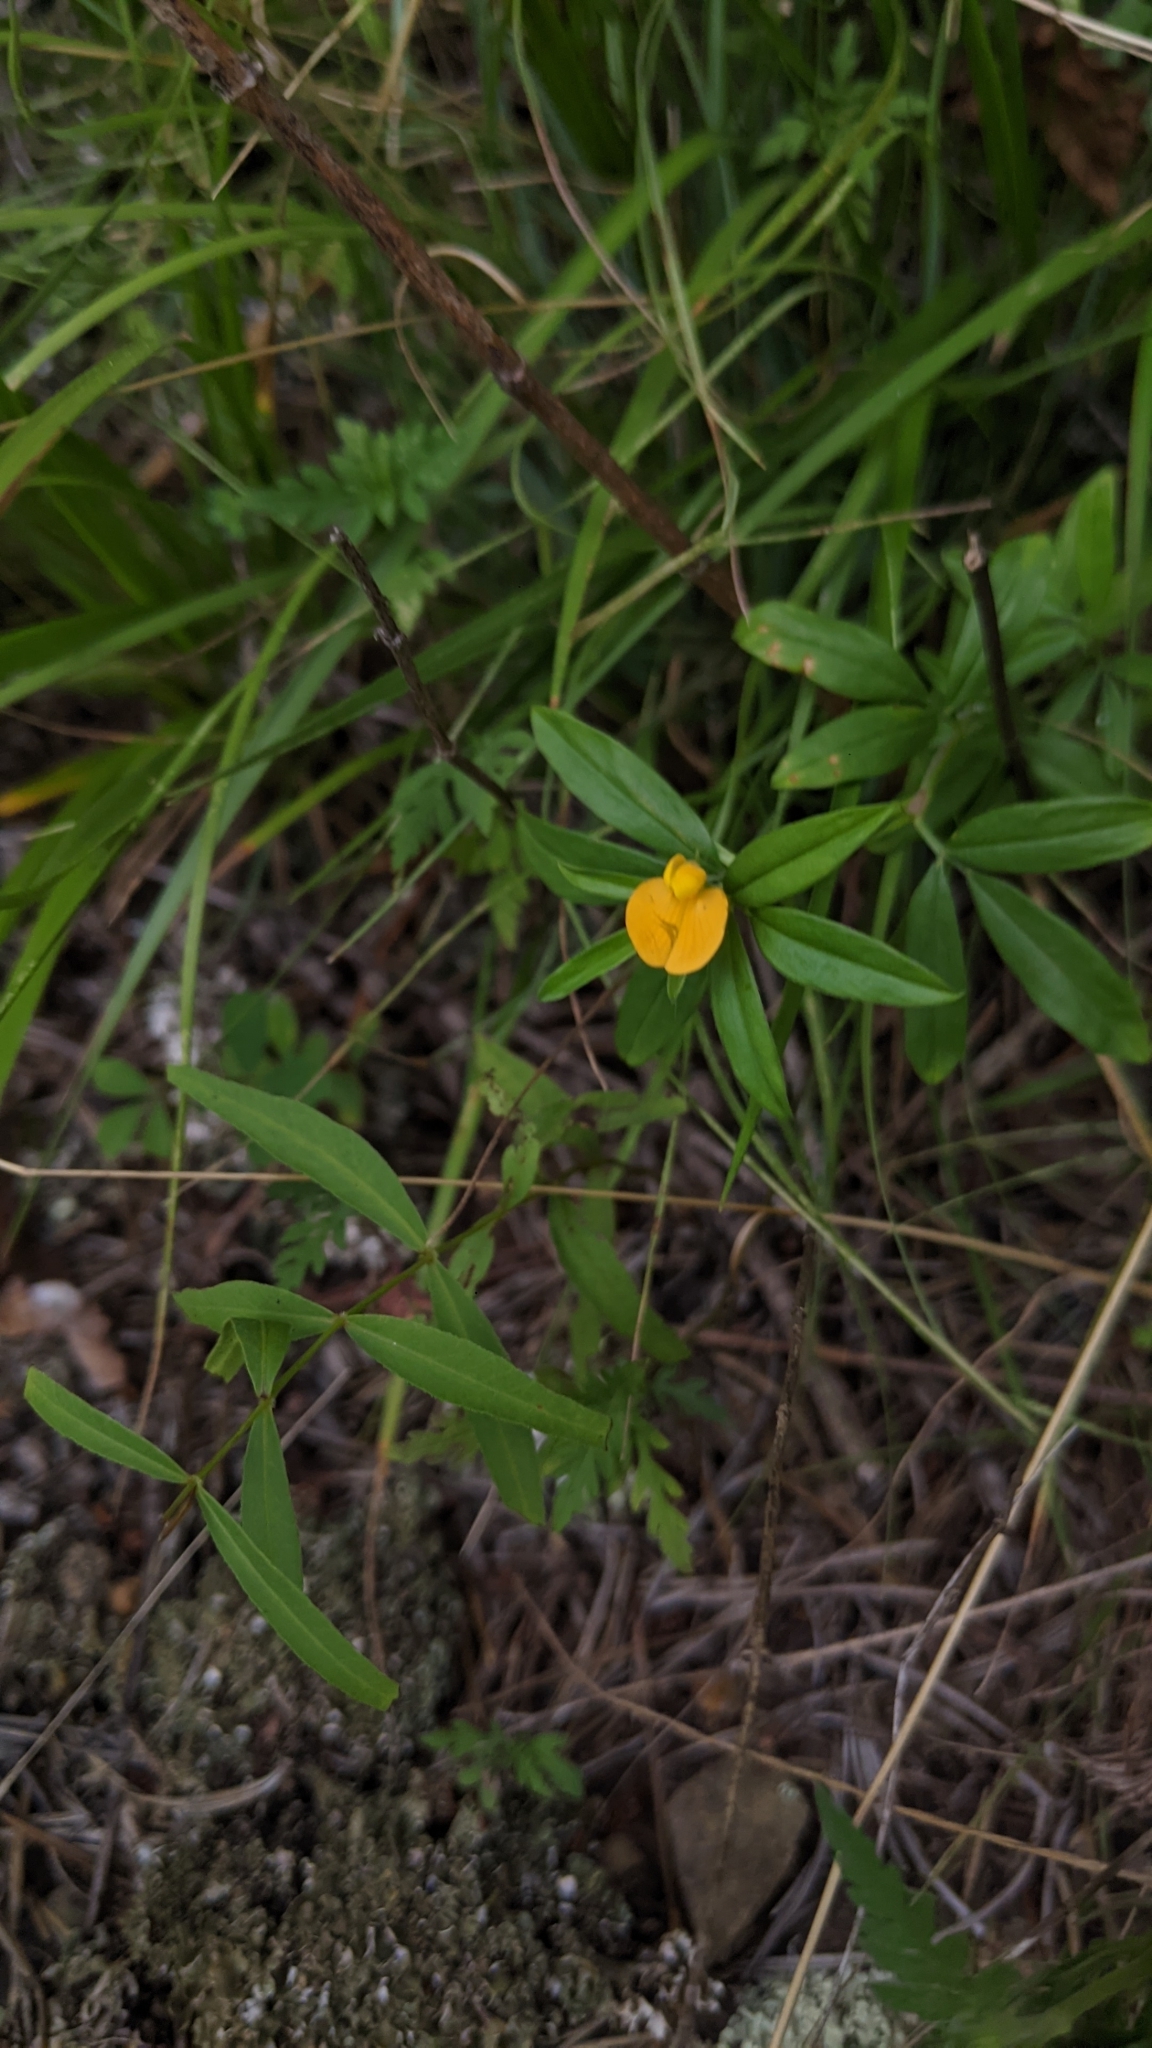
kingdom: Plantae
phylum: Tracheophyta
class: Magnoliopsida
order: Fabales
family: Fabaceae
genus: Stylosanthes
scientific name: Stylosanthes biflora
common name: Two-flower pencil-flower
